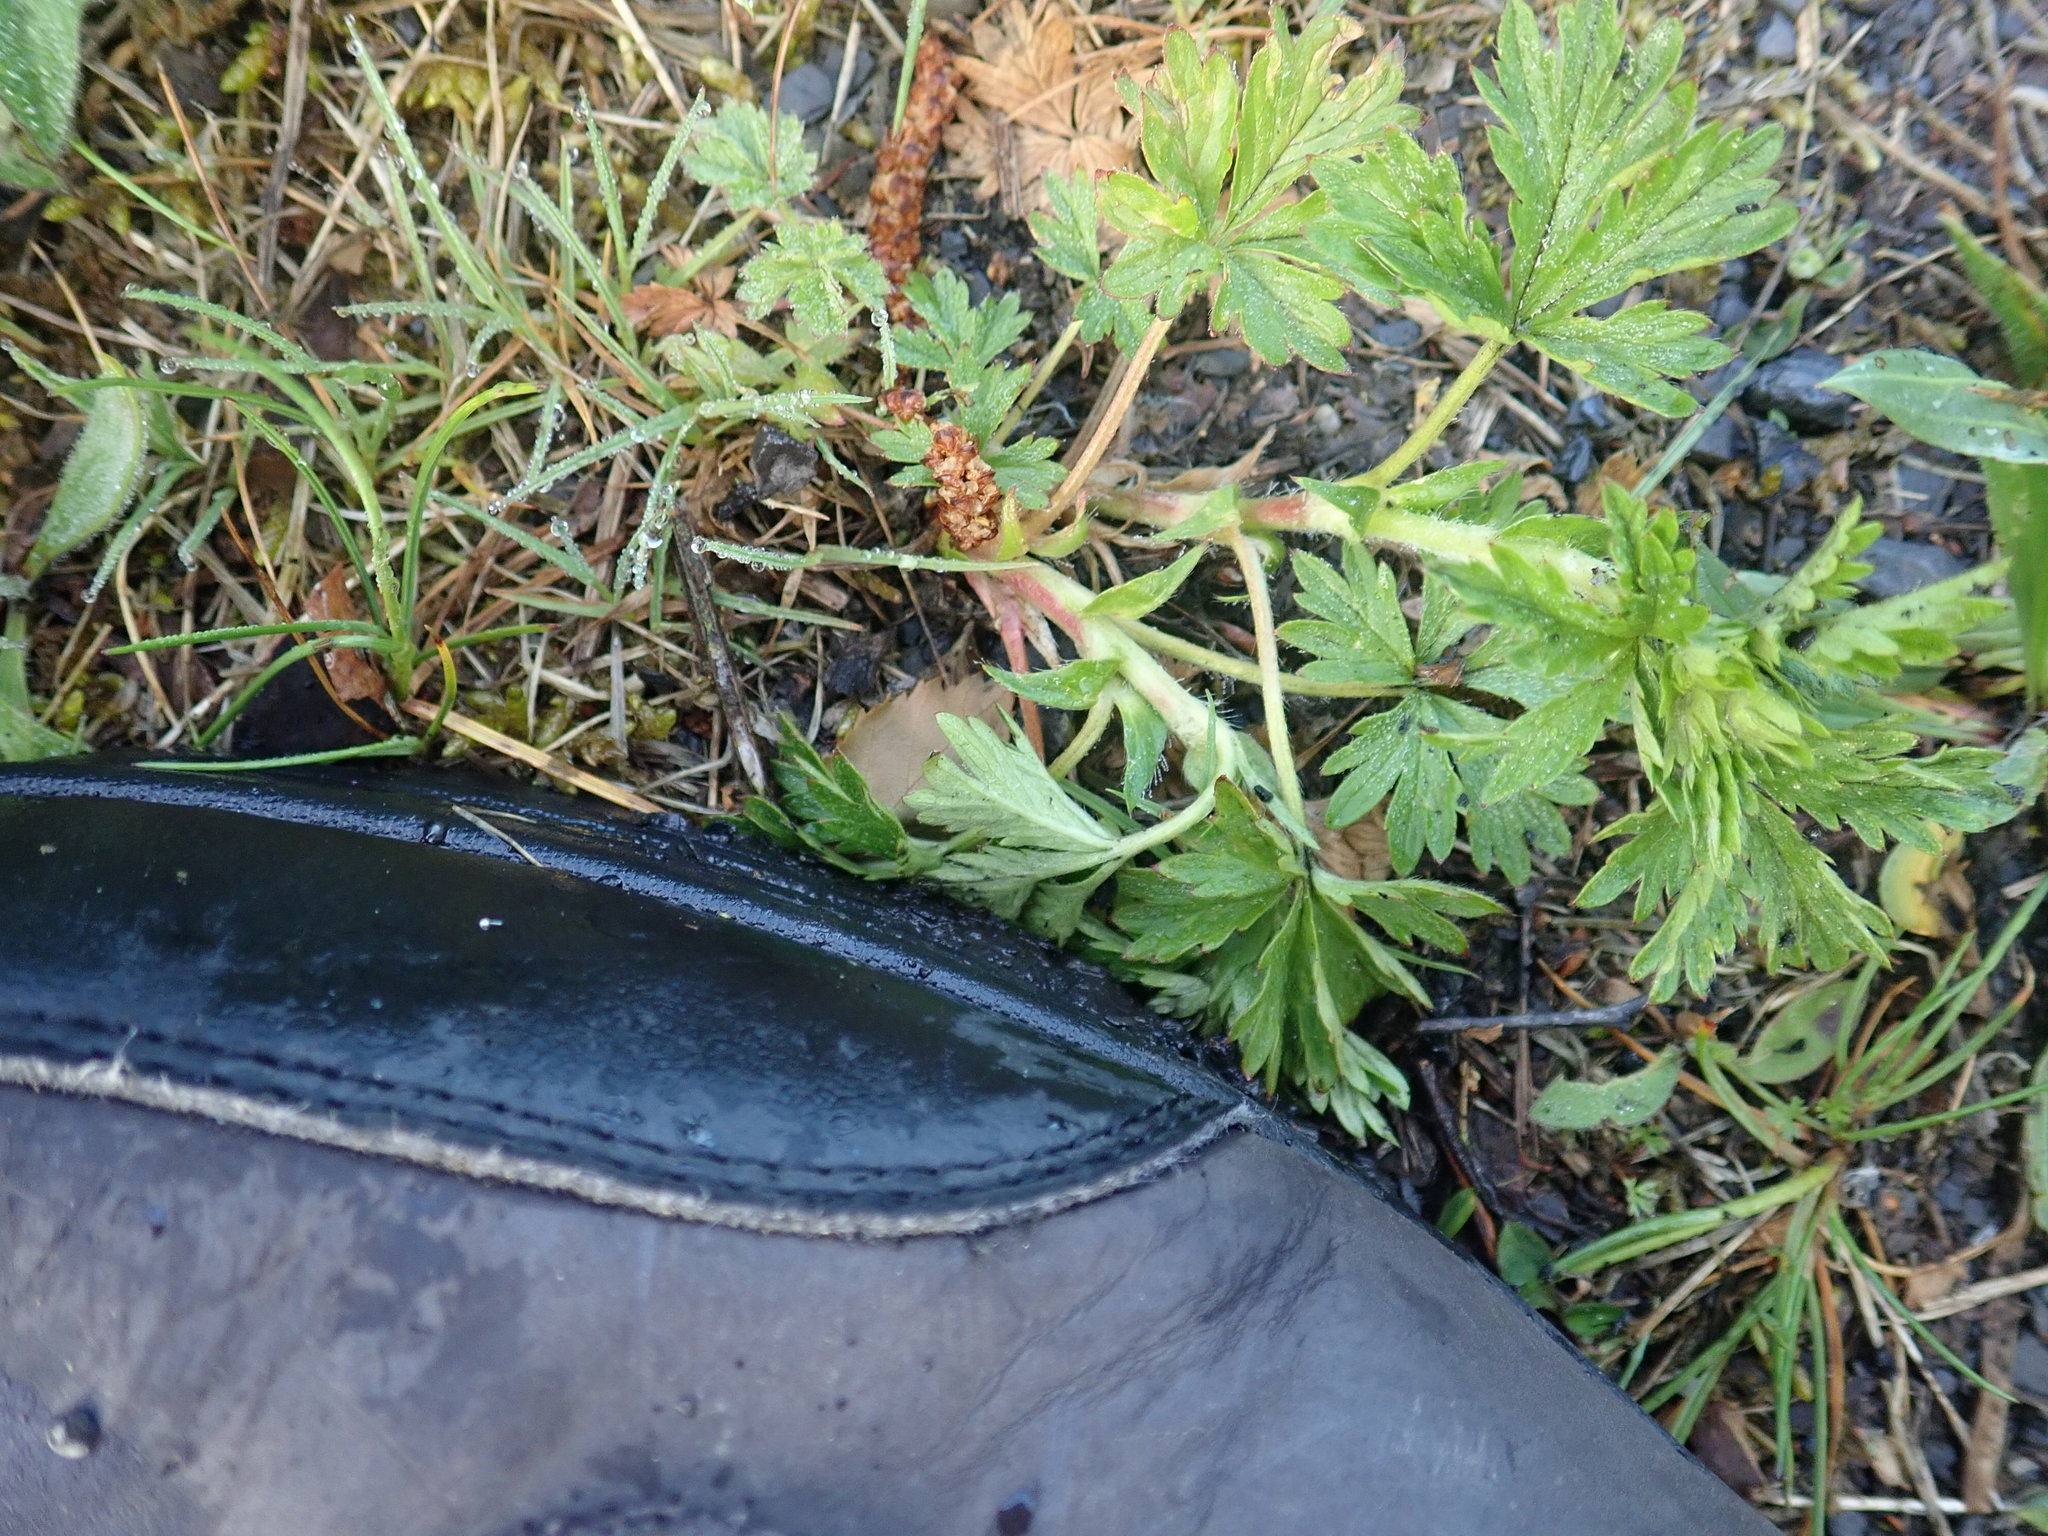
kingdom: Plantae
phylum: Tracheophyta
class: Magnoliopsida
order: Rosales
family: Rosaceae
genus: Potentilla
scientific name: Potentilla
